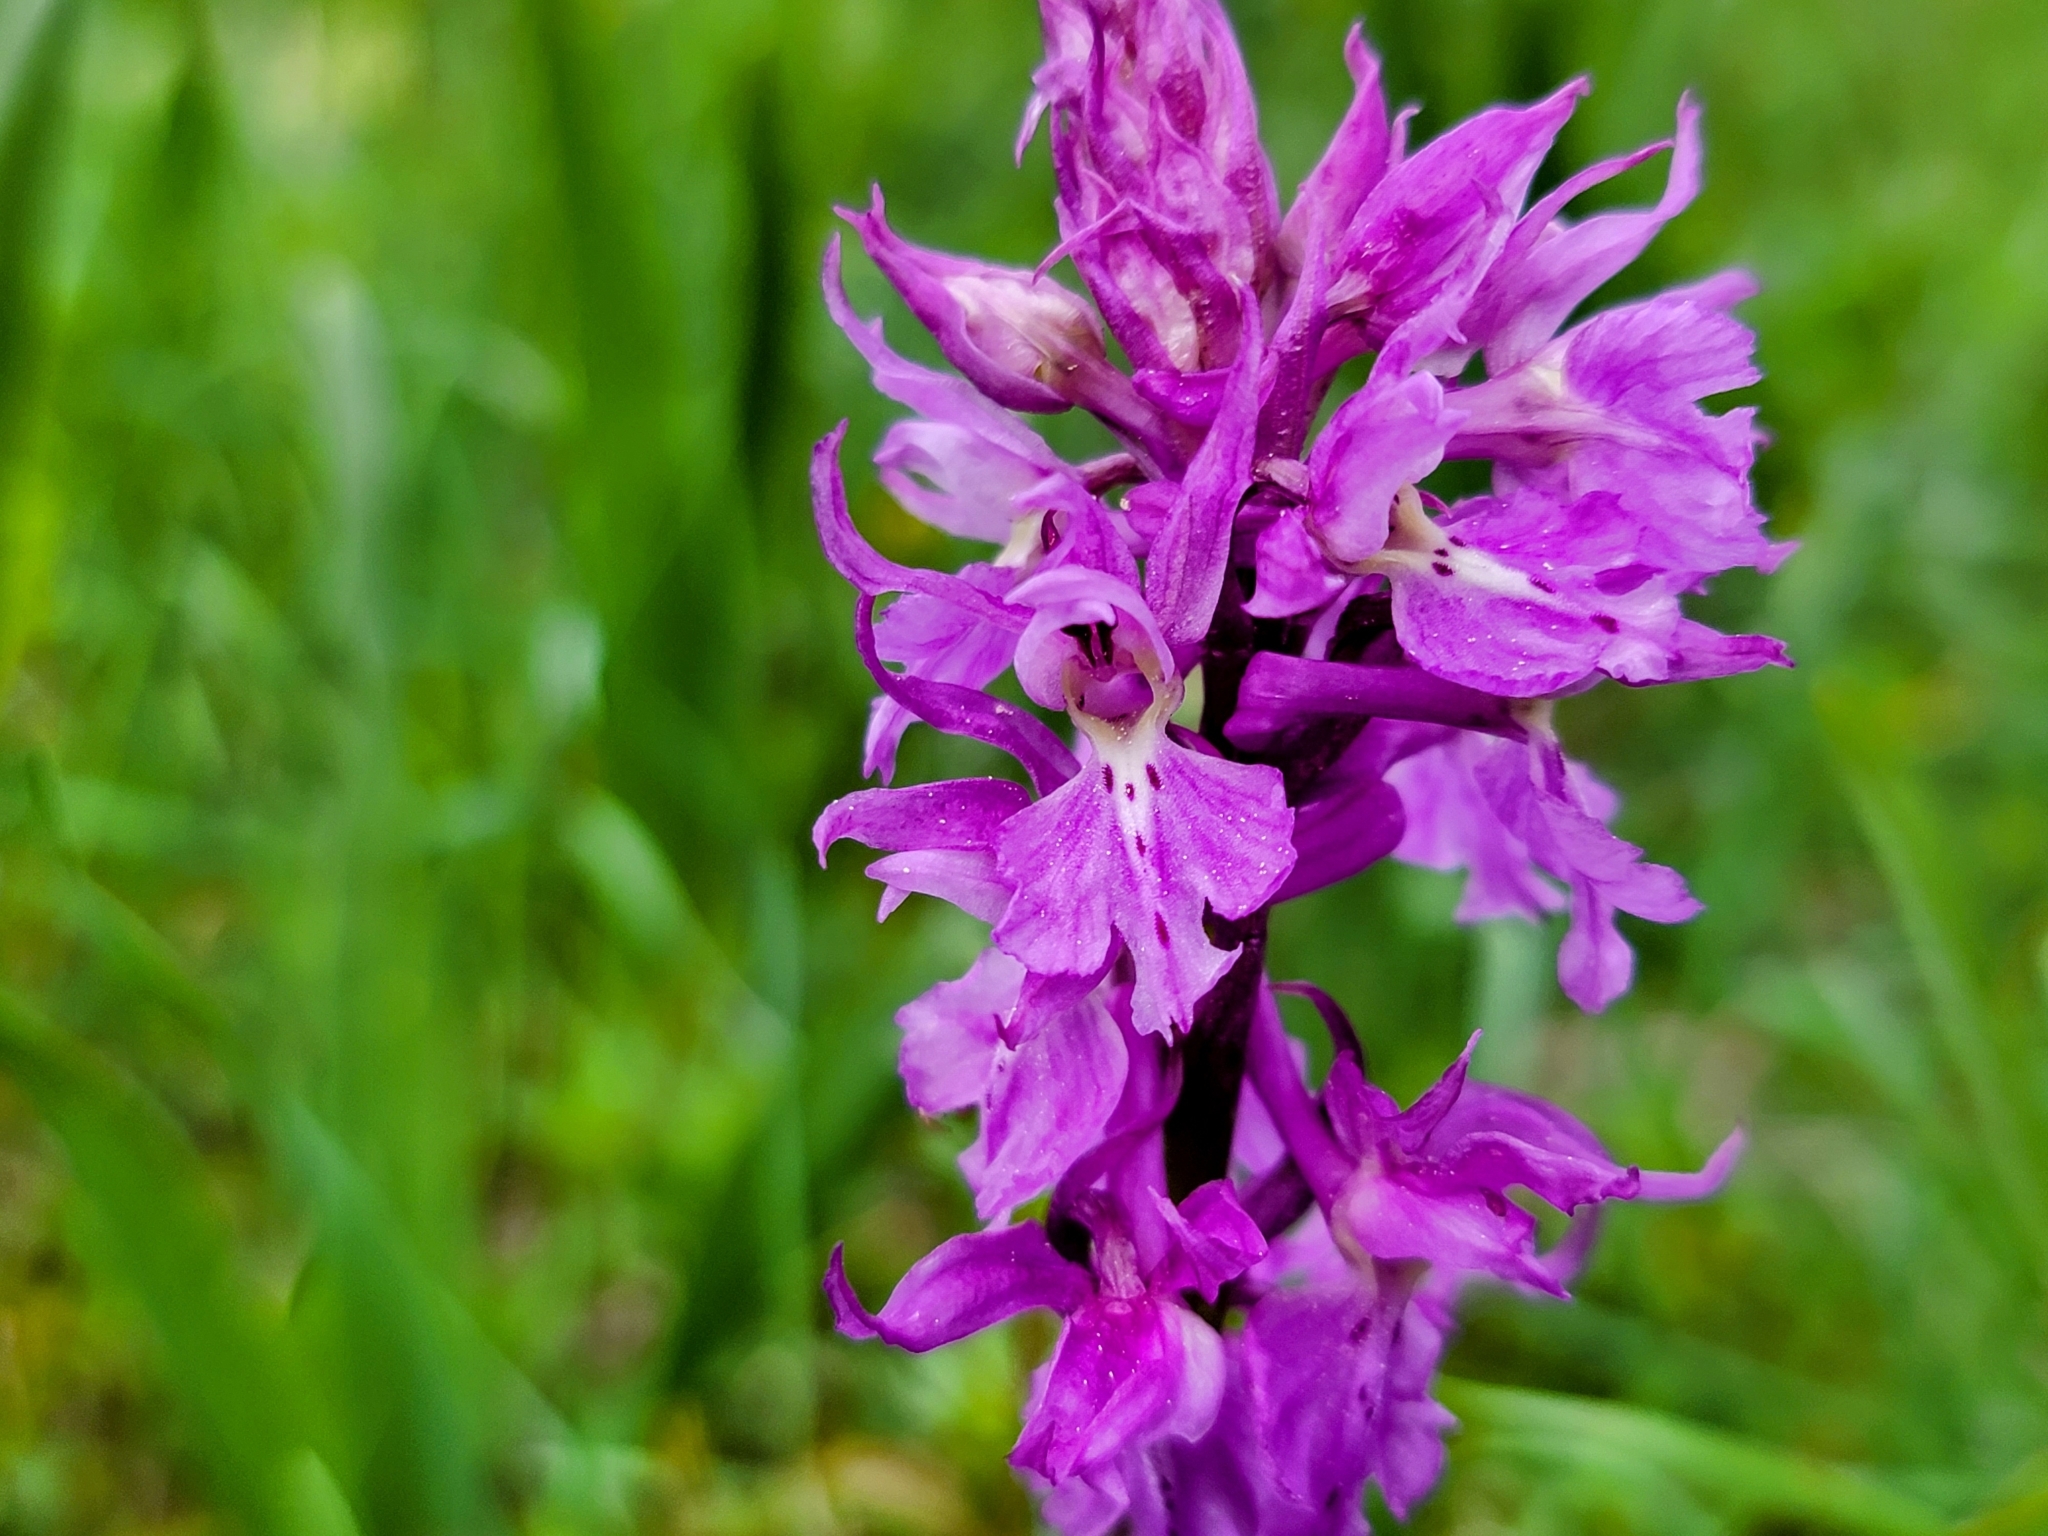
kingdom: Plantae
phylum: Tracheophyta
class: Liliopsida
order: Asparagales
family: Orchidaceae
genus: Orchis
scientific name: Orchis mascula
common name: Early-purple orchid
